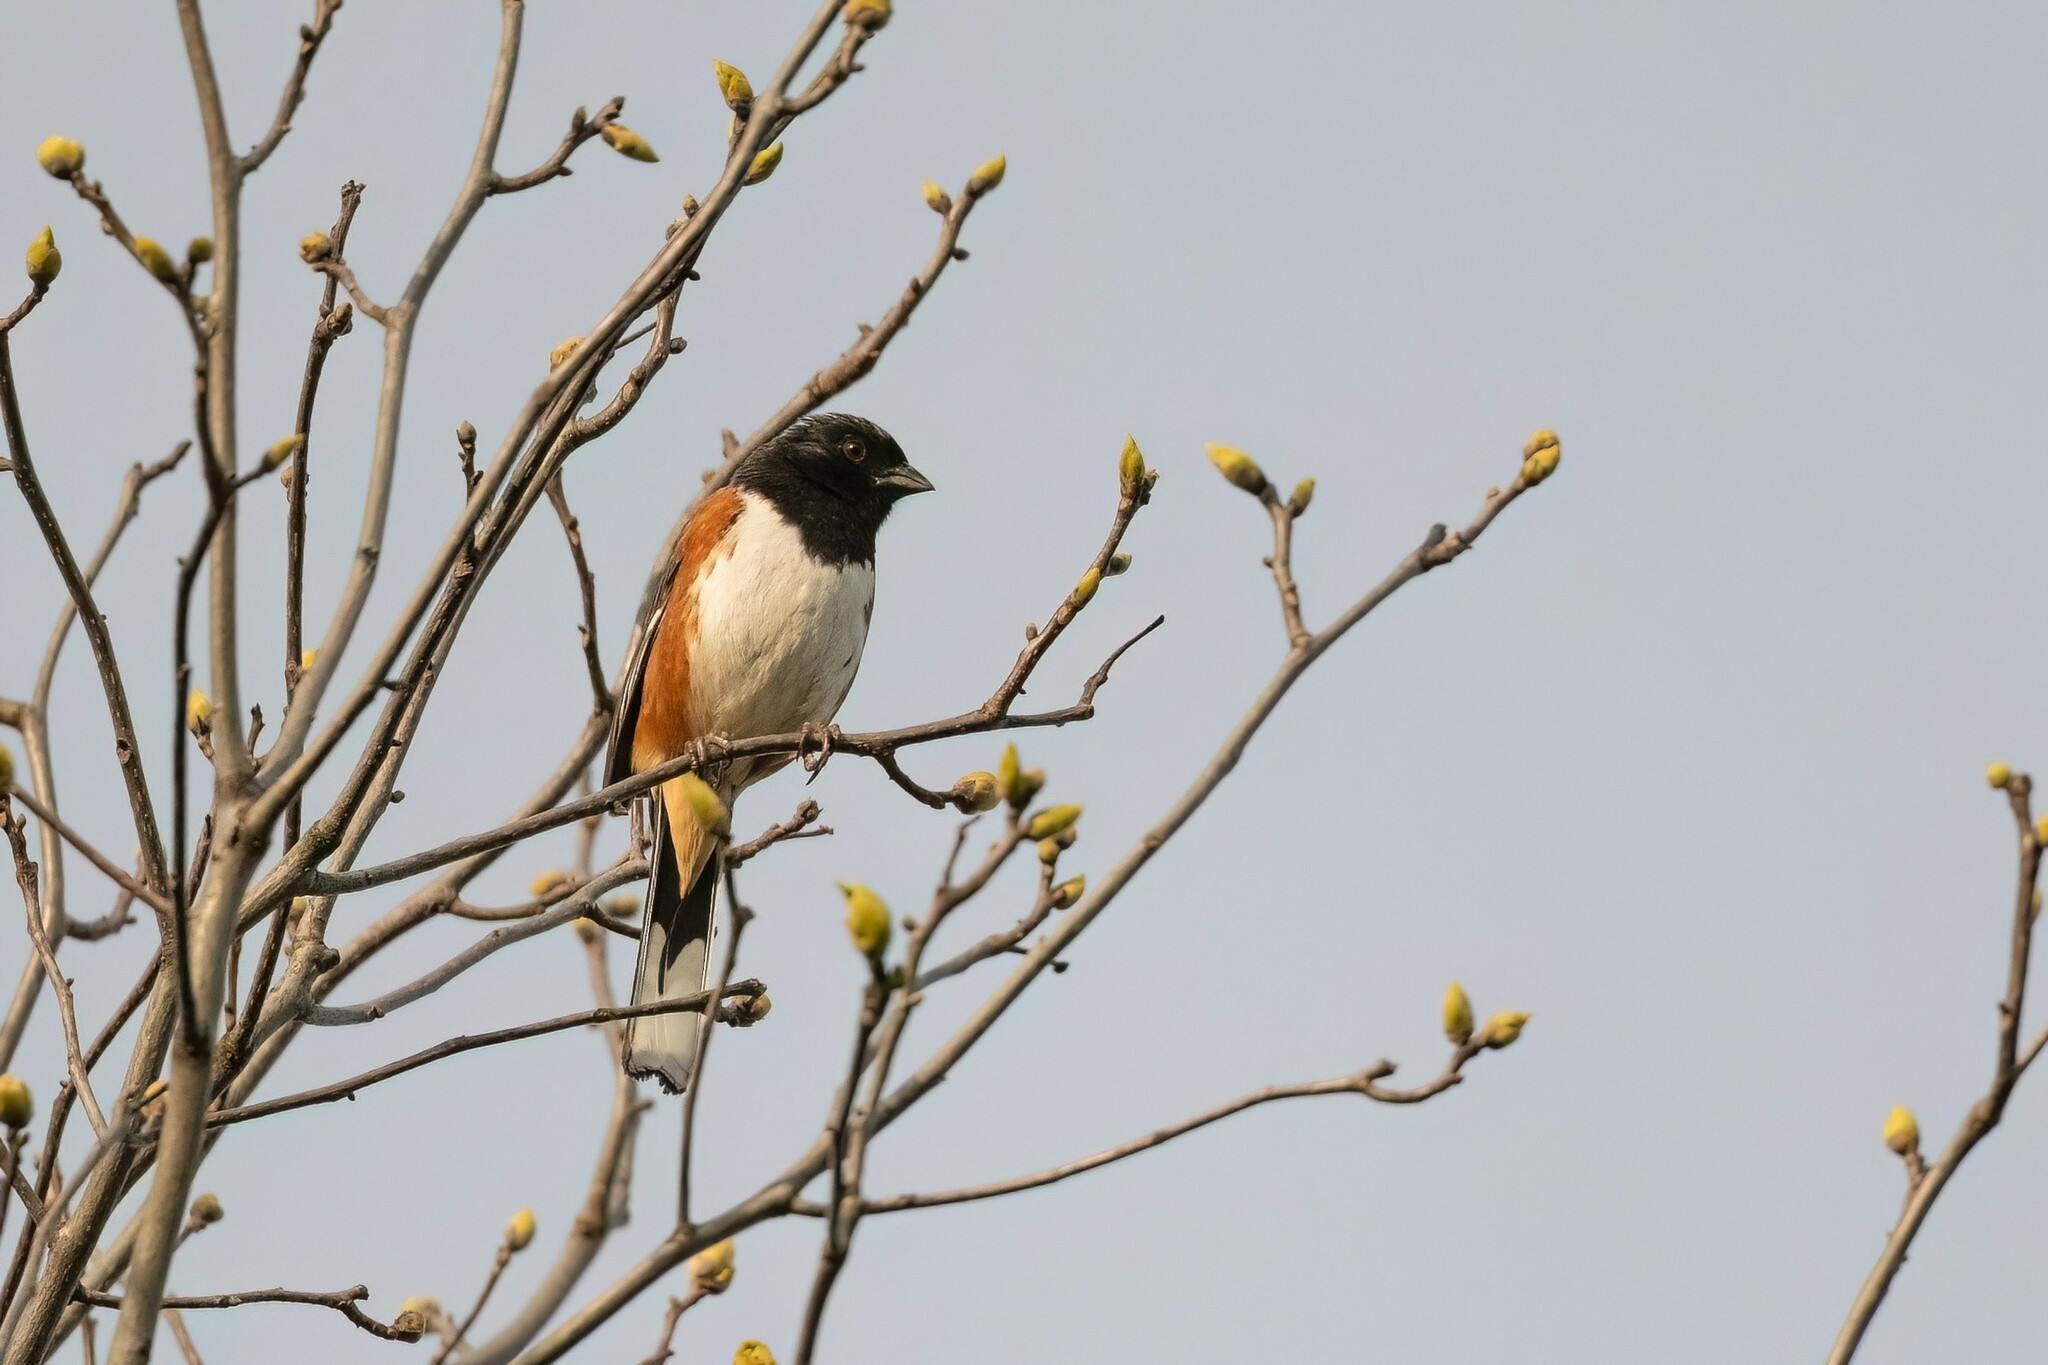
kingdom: Animalia
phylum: Chordata
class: Aves
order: Passeriformes
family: Passerellidae
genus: Pipilo
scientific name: Pipilo erythrophthalmus
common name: Eastern towhee
